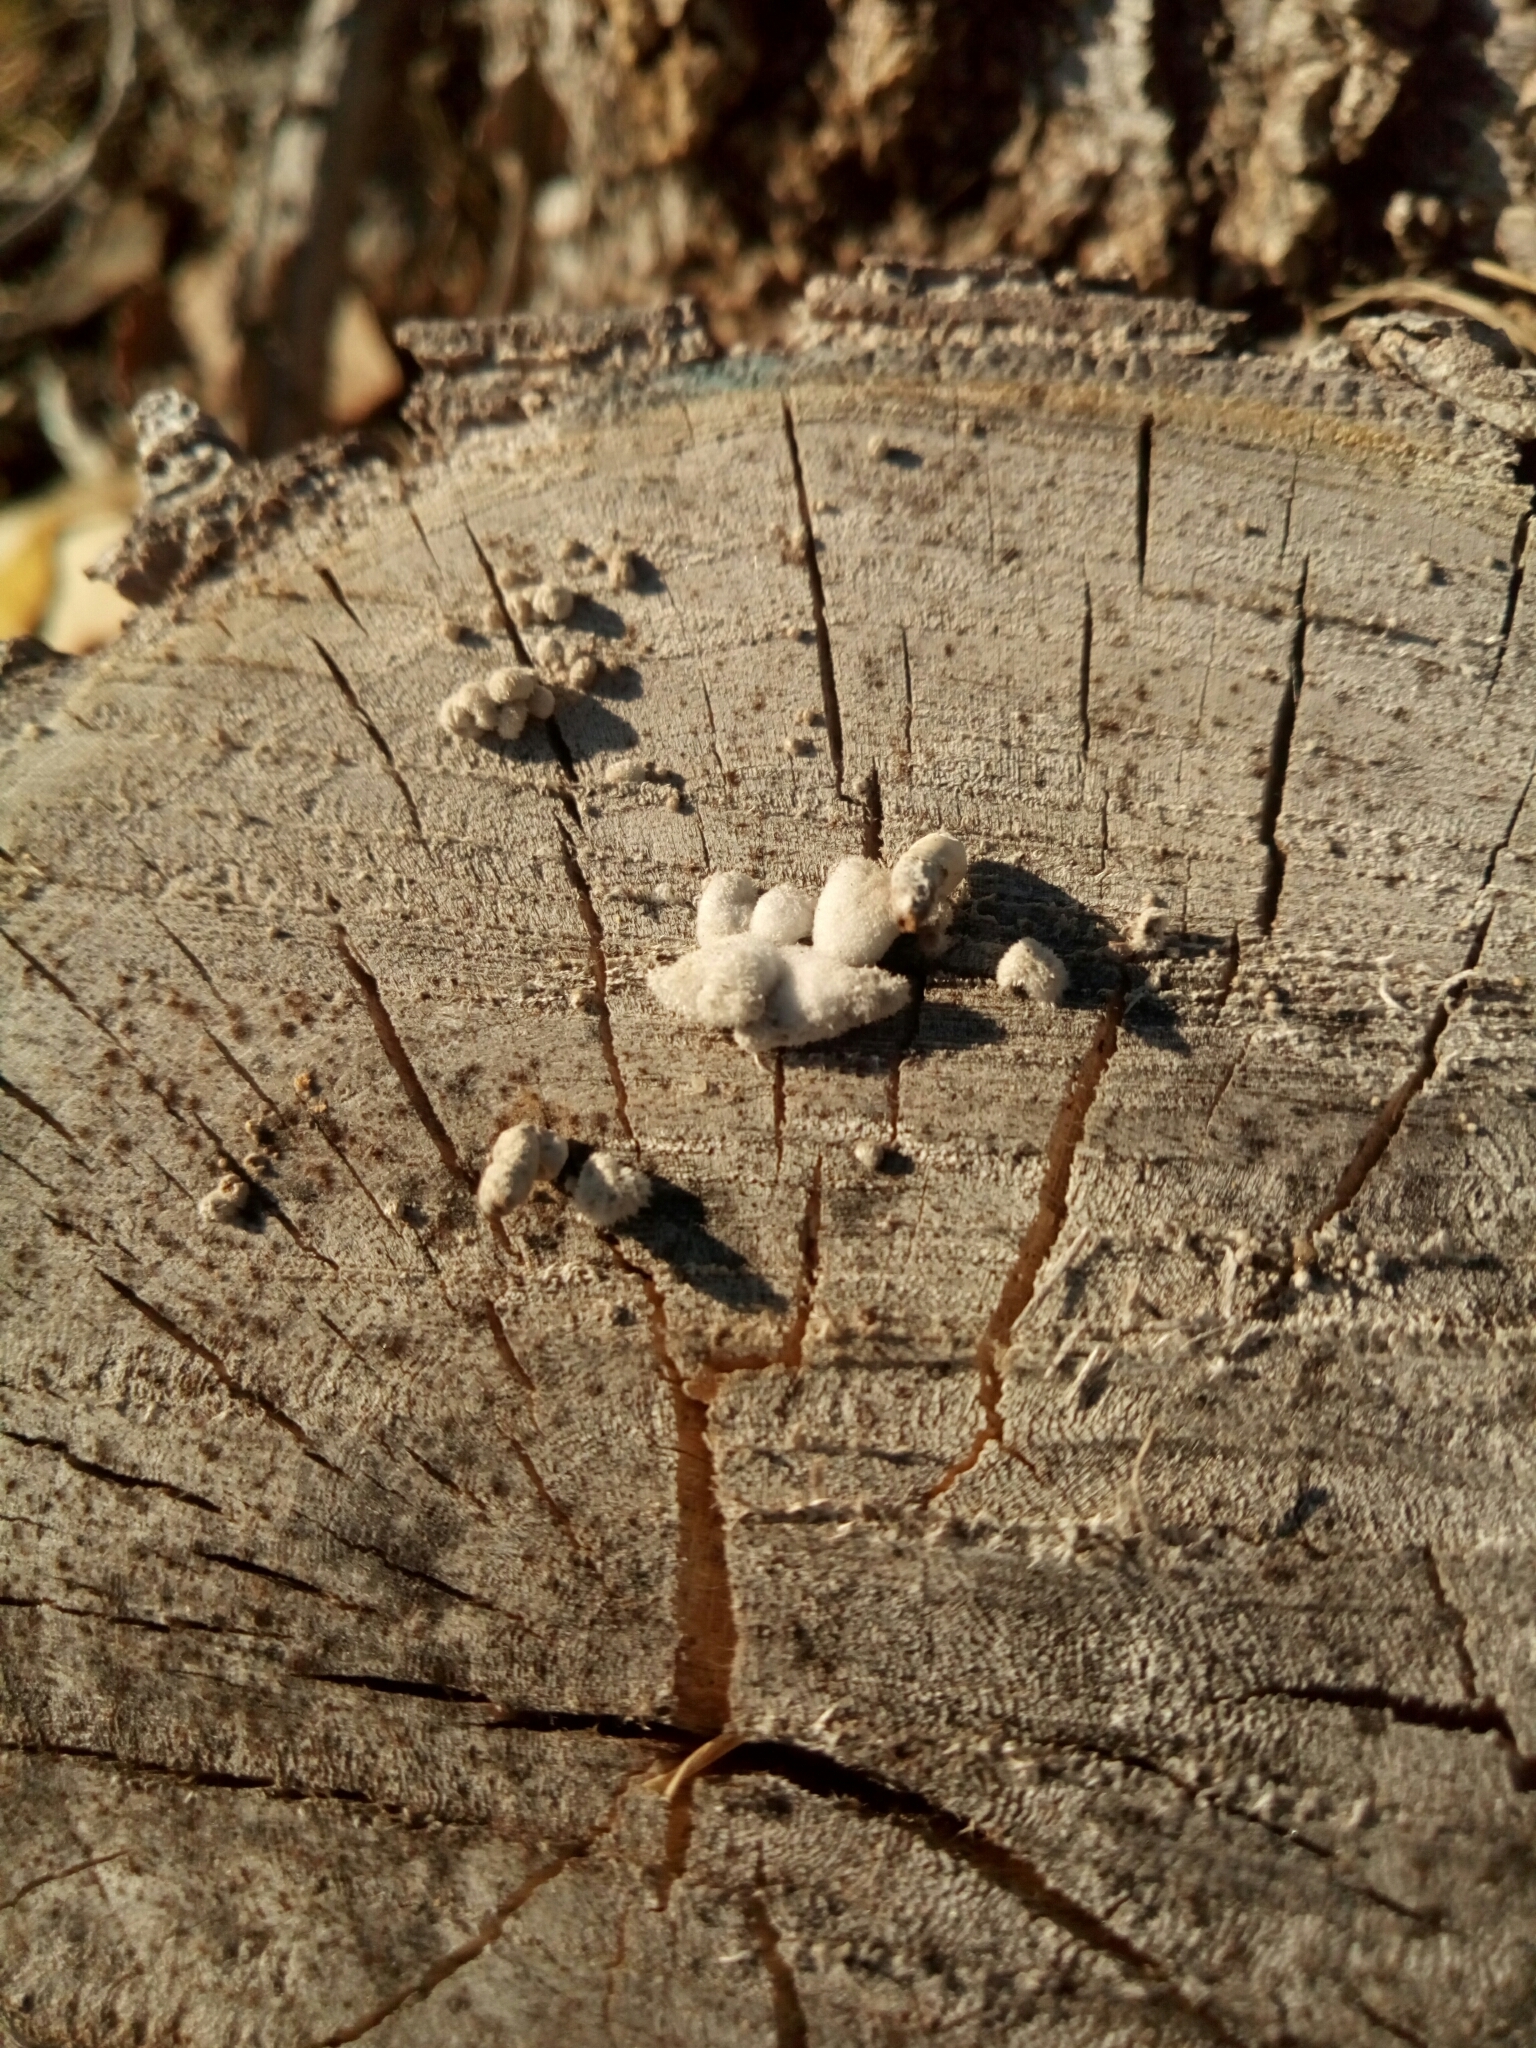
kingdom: Fungi
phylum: Basidiomycota
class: Agaricomycetes
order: Agaricales
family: Schizophyllaceae
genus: Schizophyllum
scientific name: Schizophyllum commune
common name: Common porecrust
